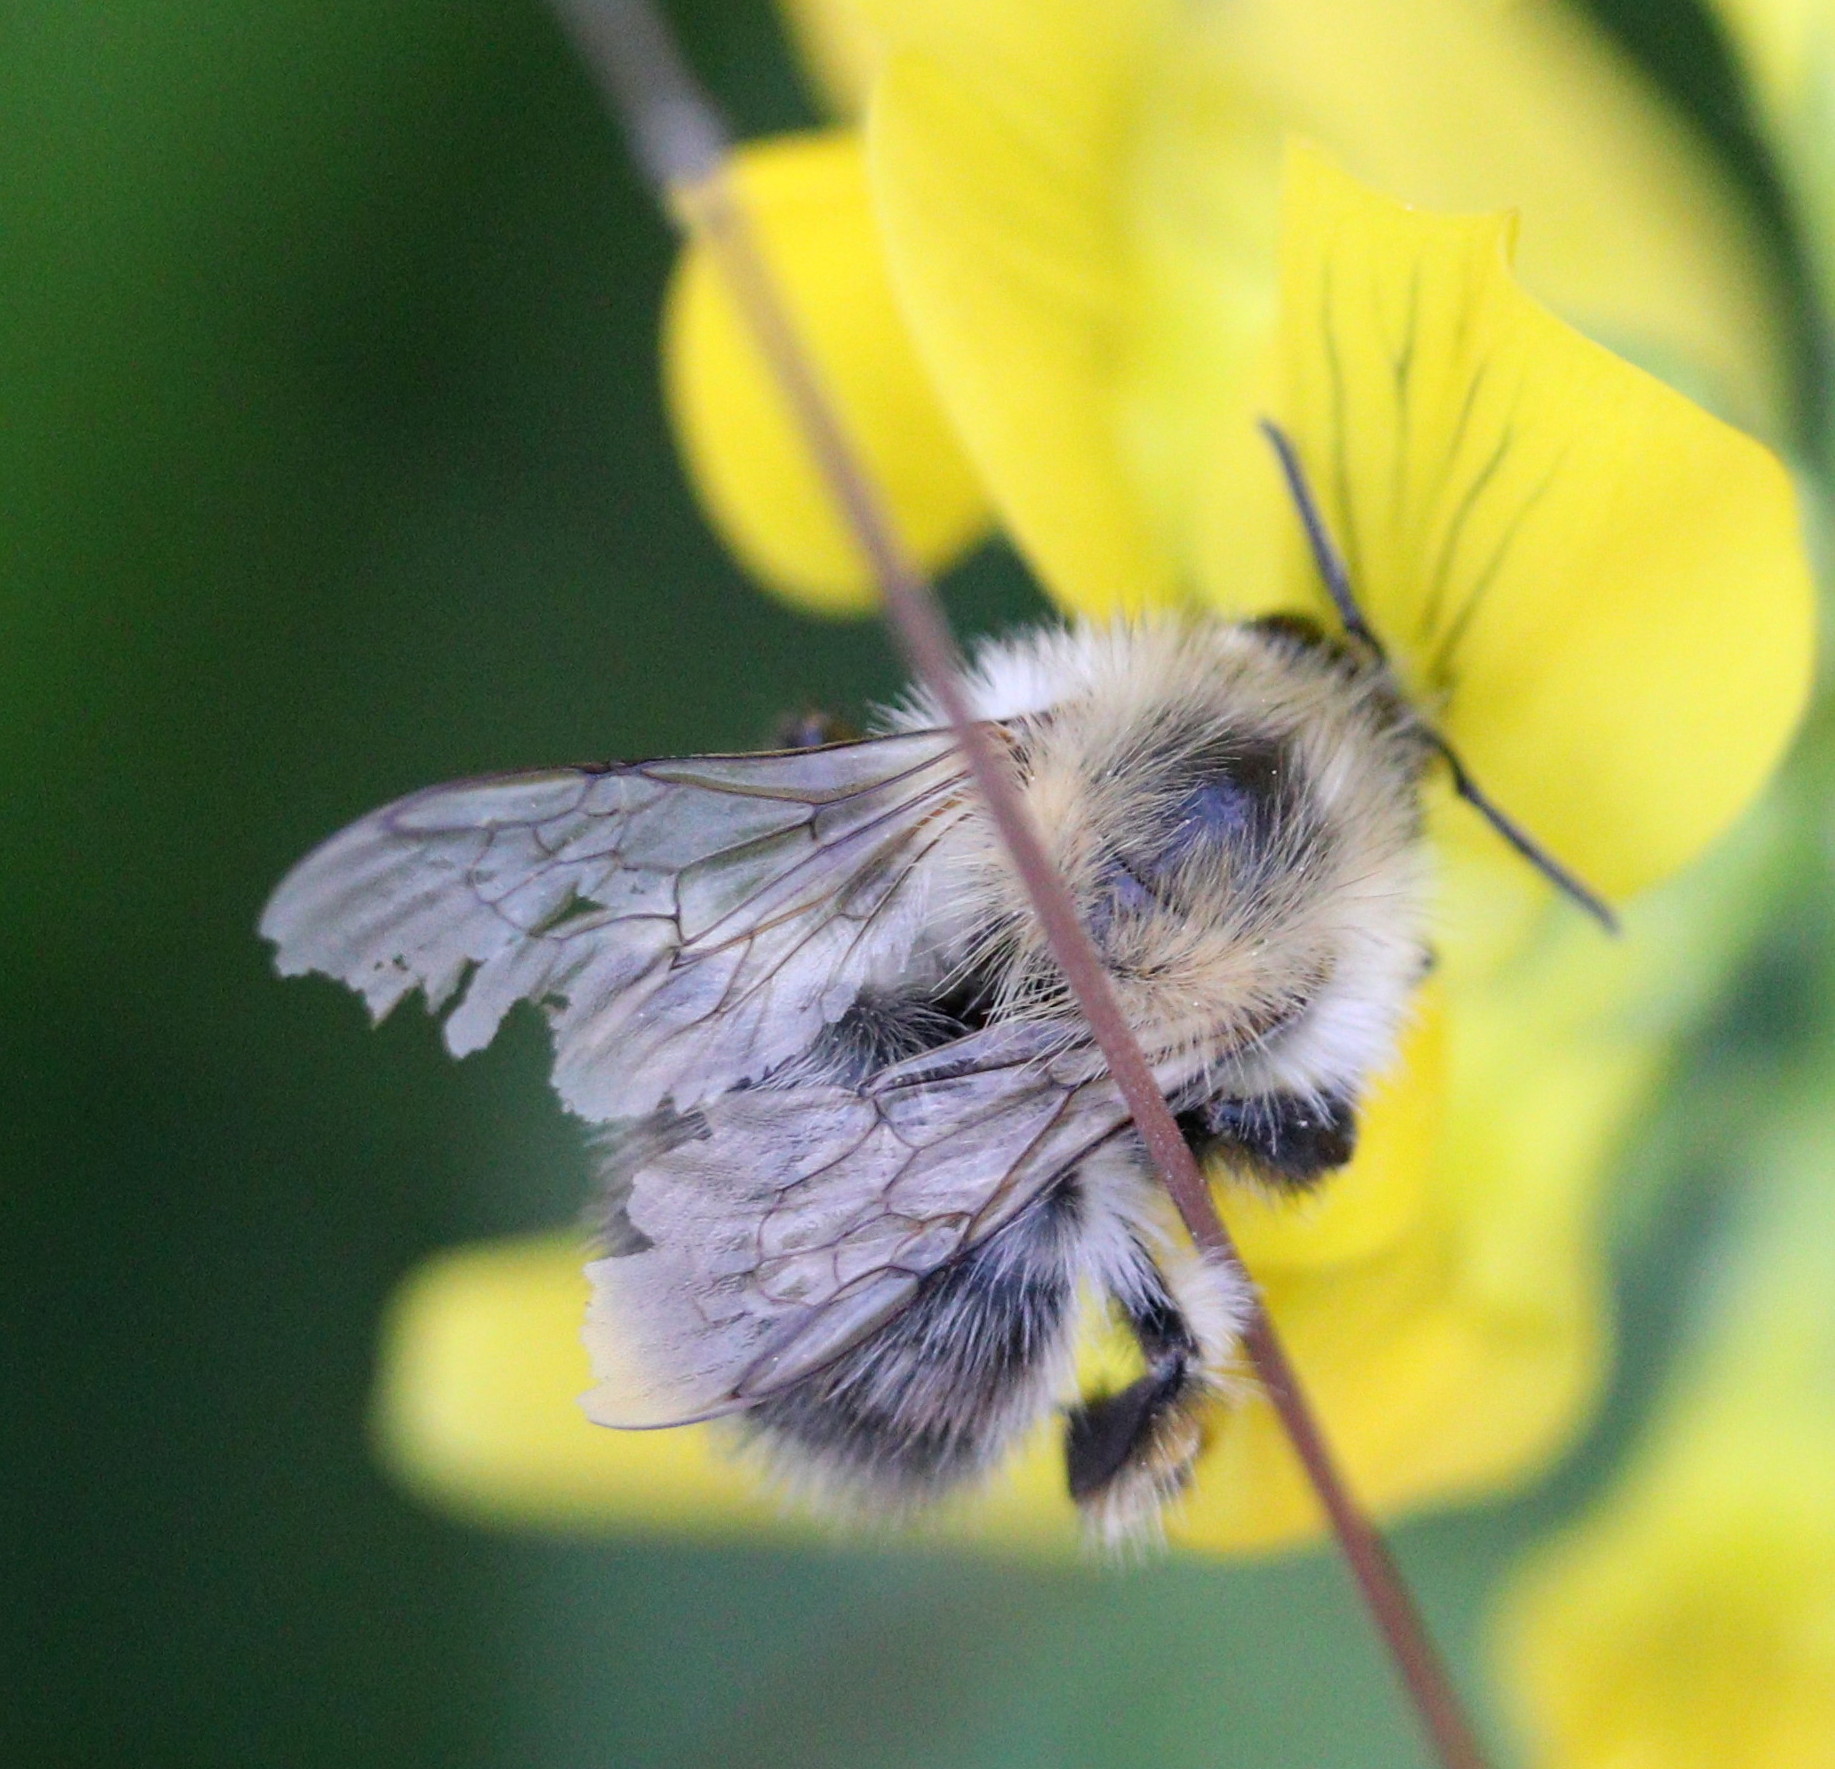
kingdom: Animalia
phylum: Arthropoda
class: Insecta
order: Hymenoptera
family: Apidae
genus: Bombus
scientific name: Bombus pascuorum
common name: Common carder bee
